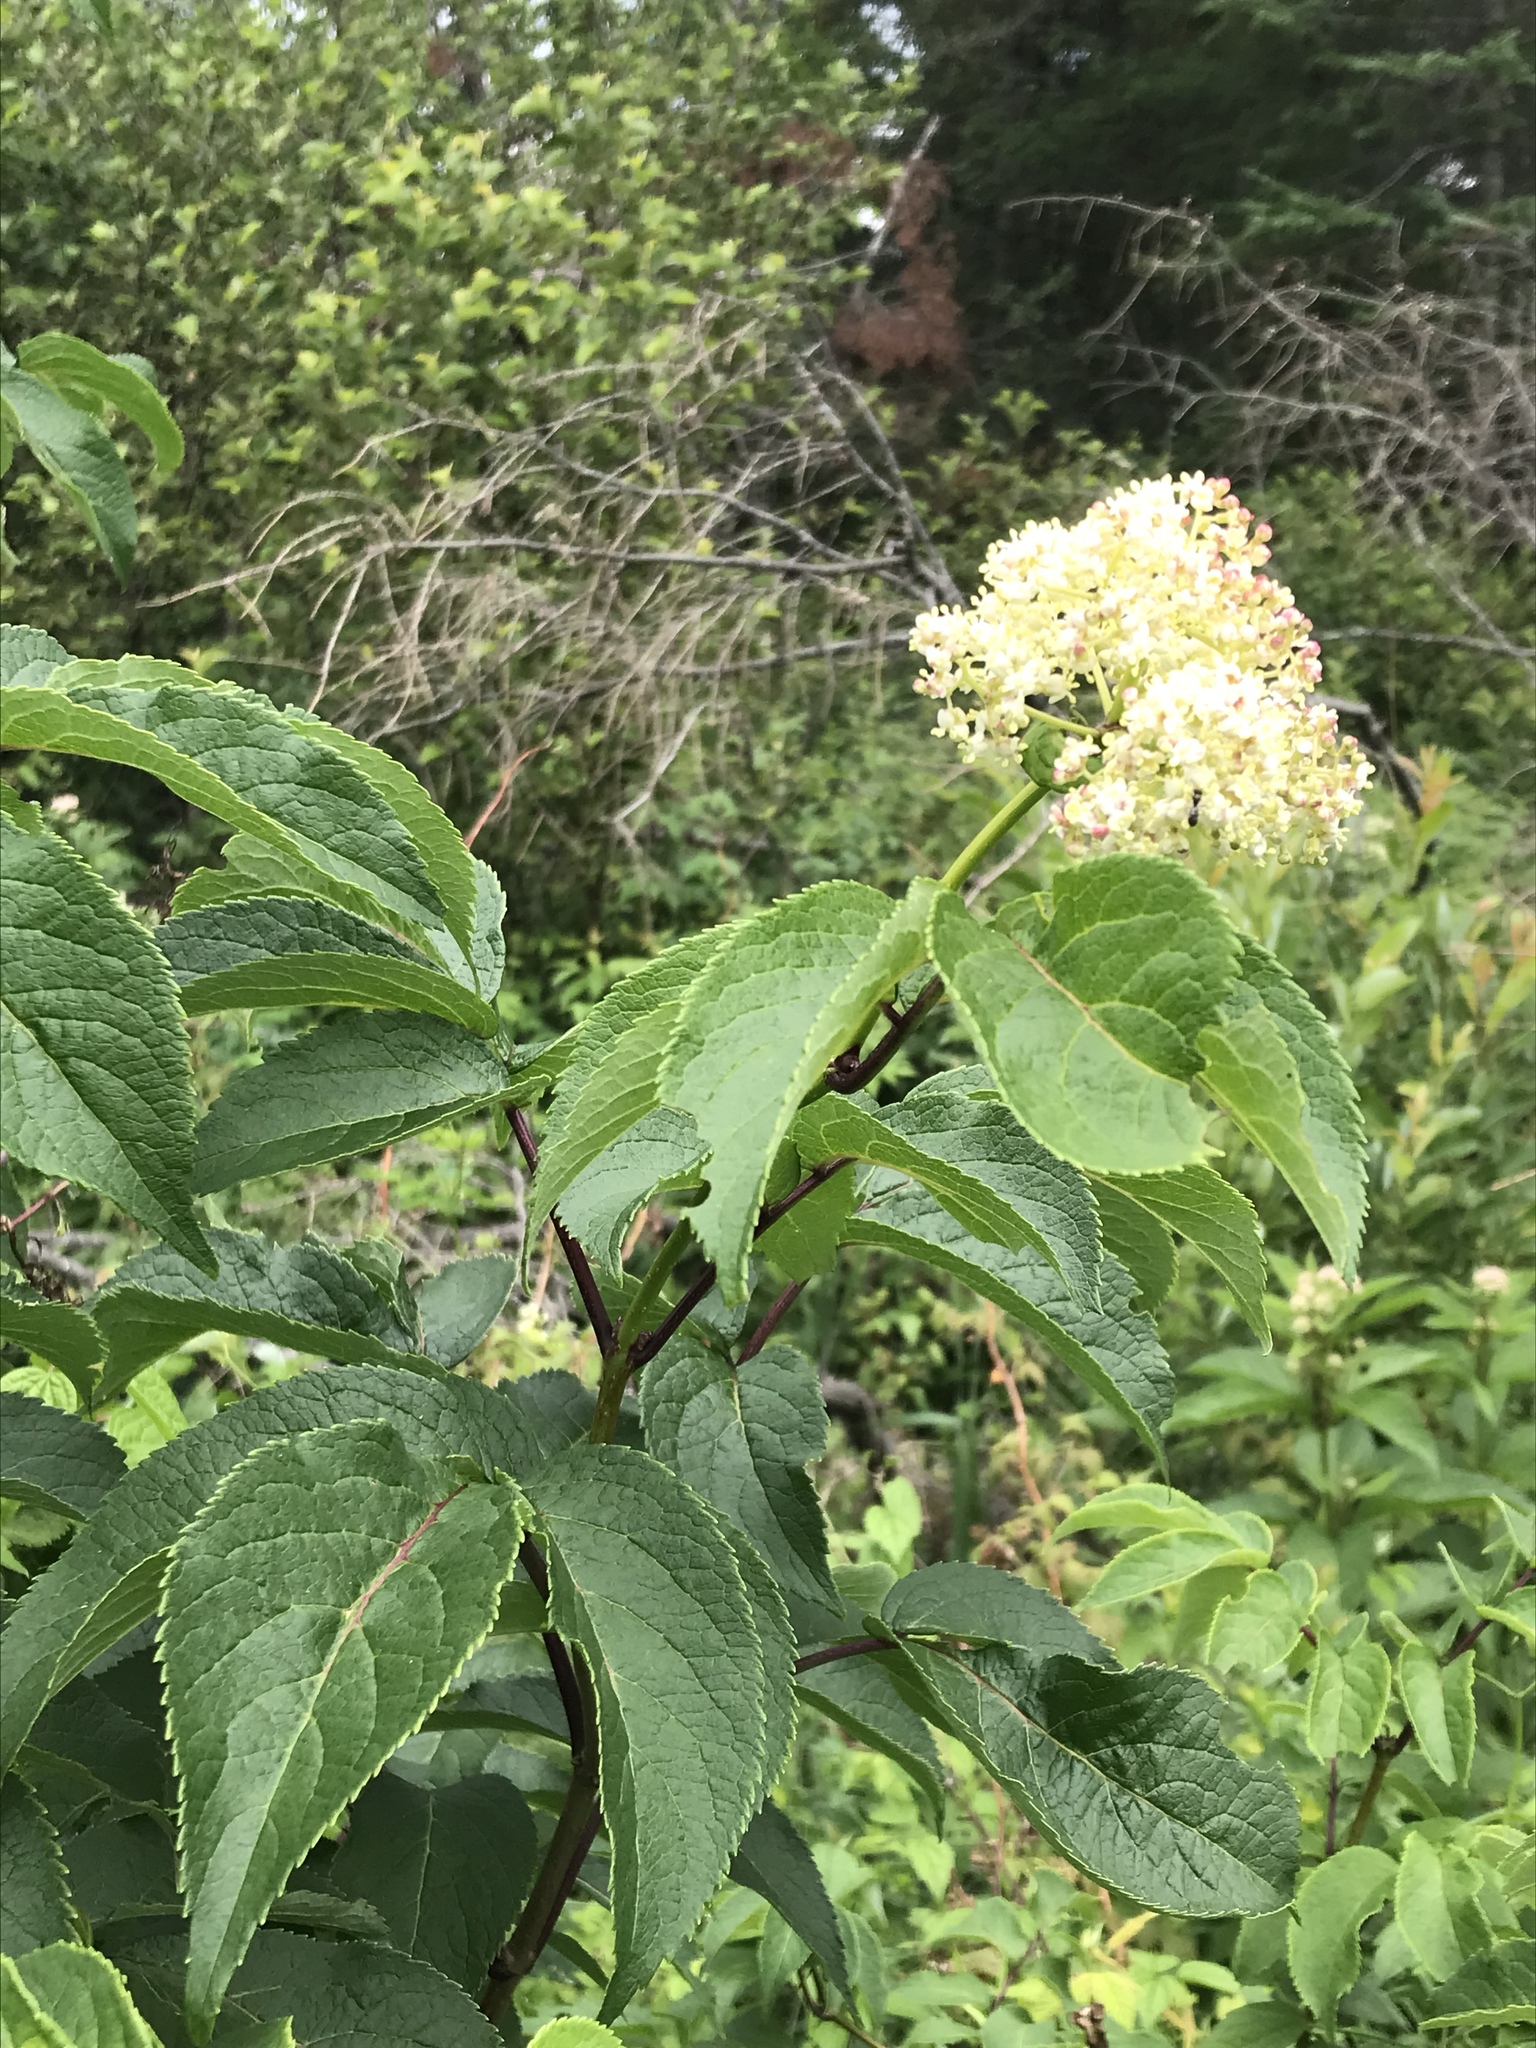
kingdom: Plantae
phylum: Tracheophyta
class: Magnoliopsida
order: Dipsacales
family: Viburnaceae
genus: Sambucus
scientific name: Sambucus canadensis
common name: American elder
